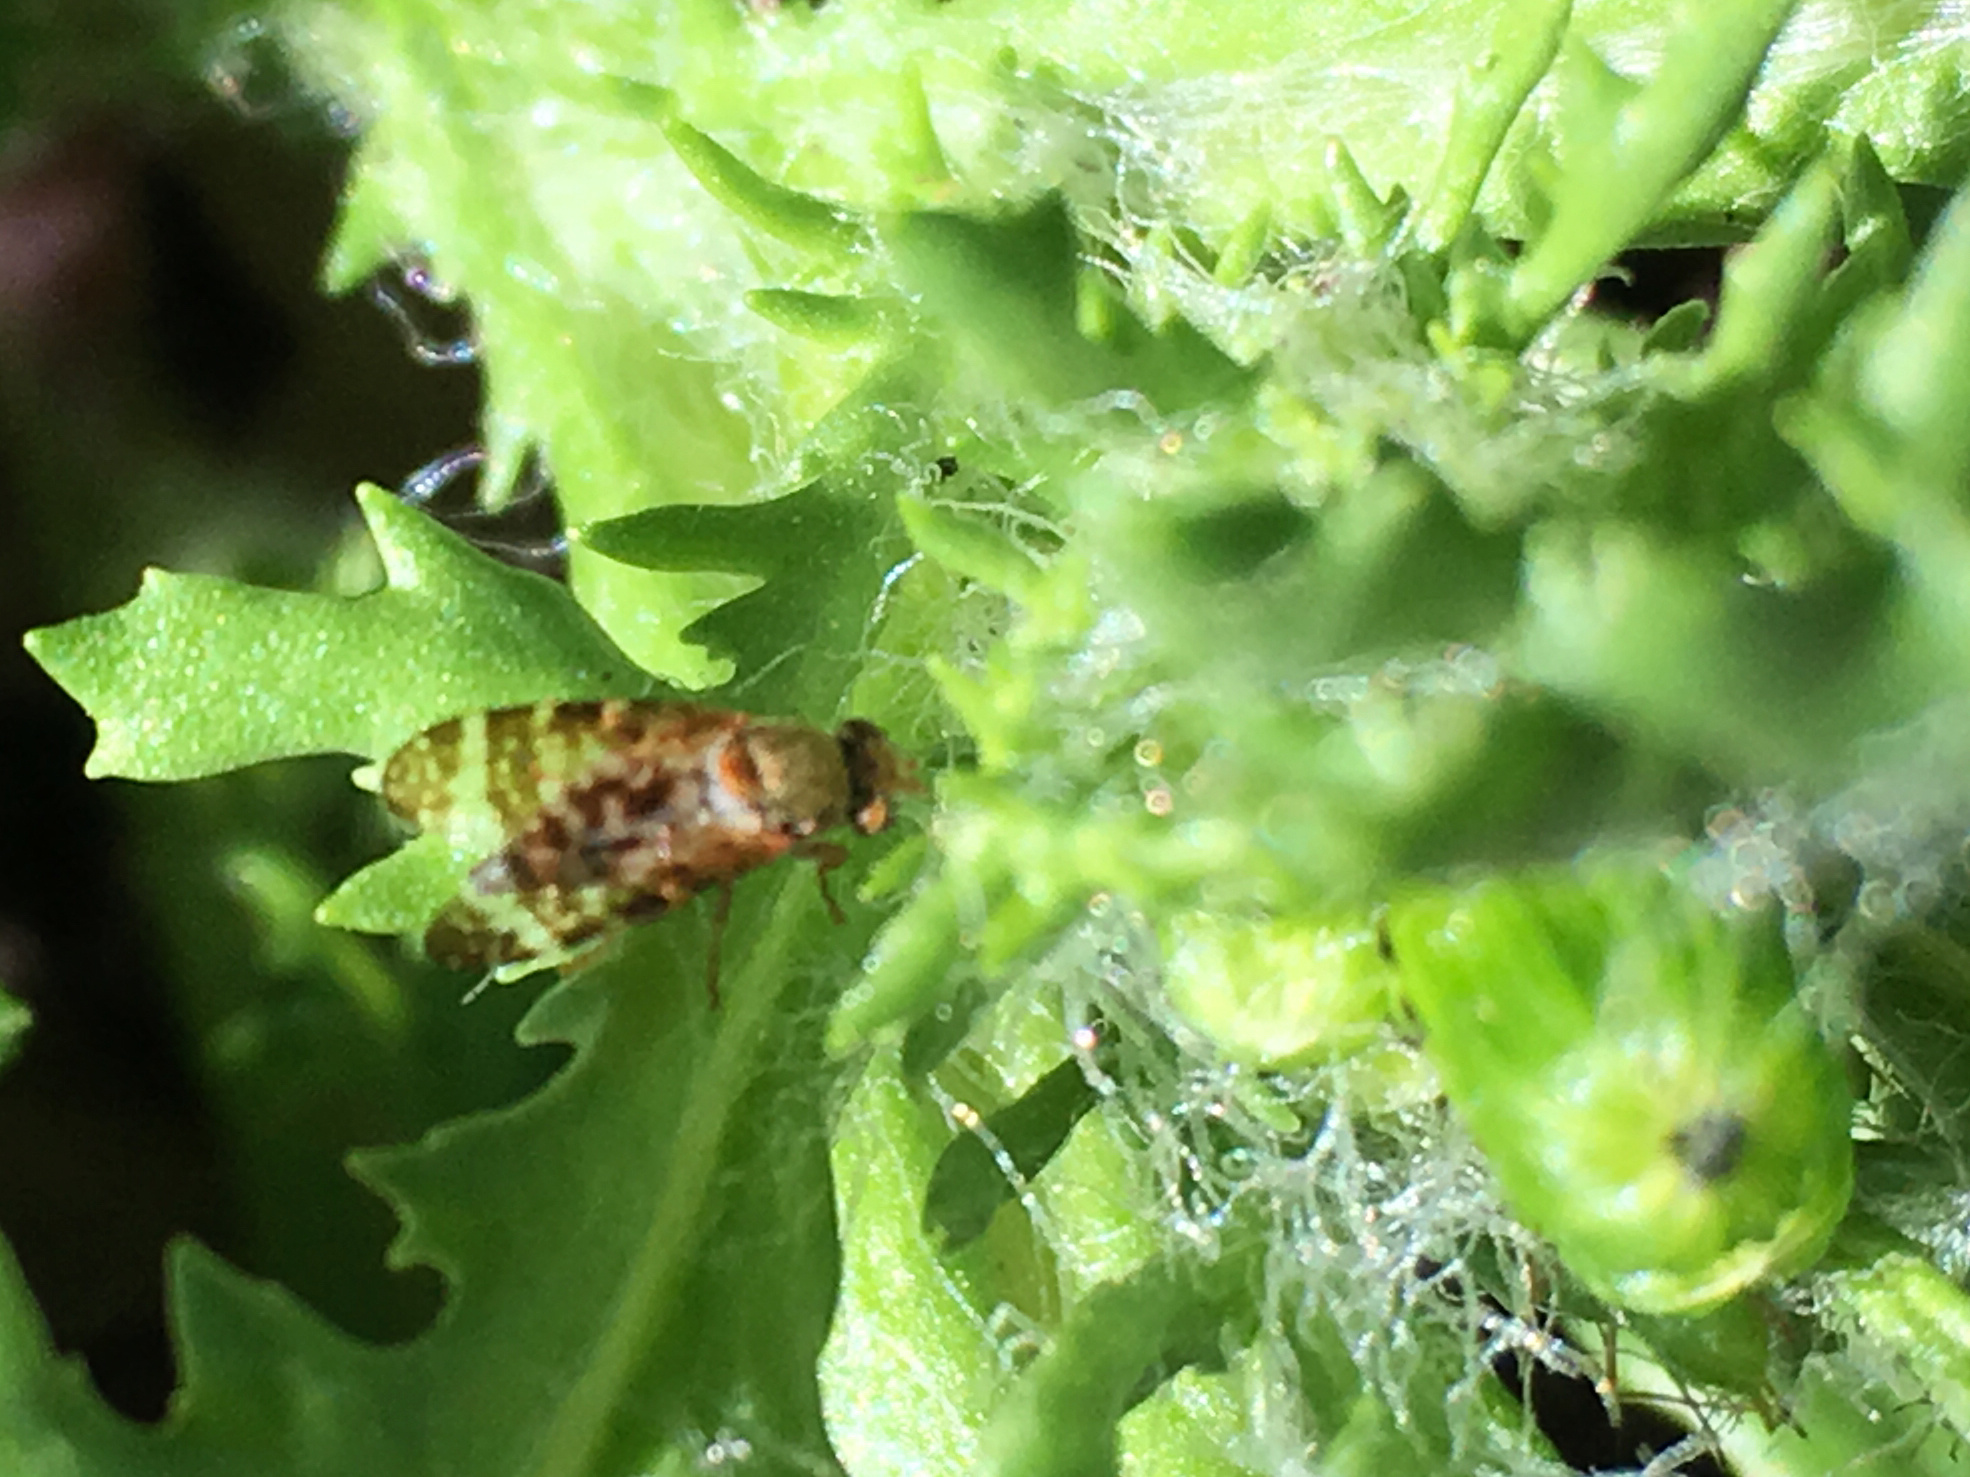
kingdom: Animalia
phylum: Arthropoda
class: Insecta
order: Diptera
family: Tephritidae
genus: Sphenella
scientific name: Sphenella
